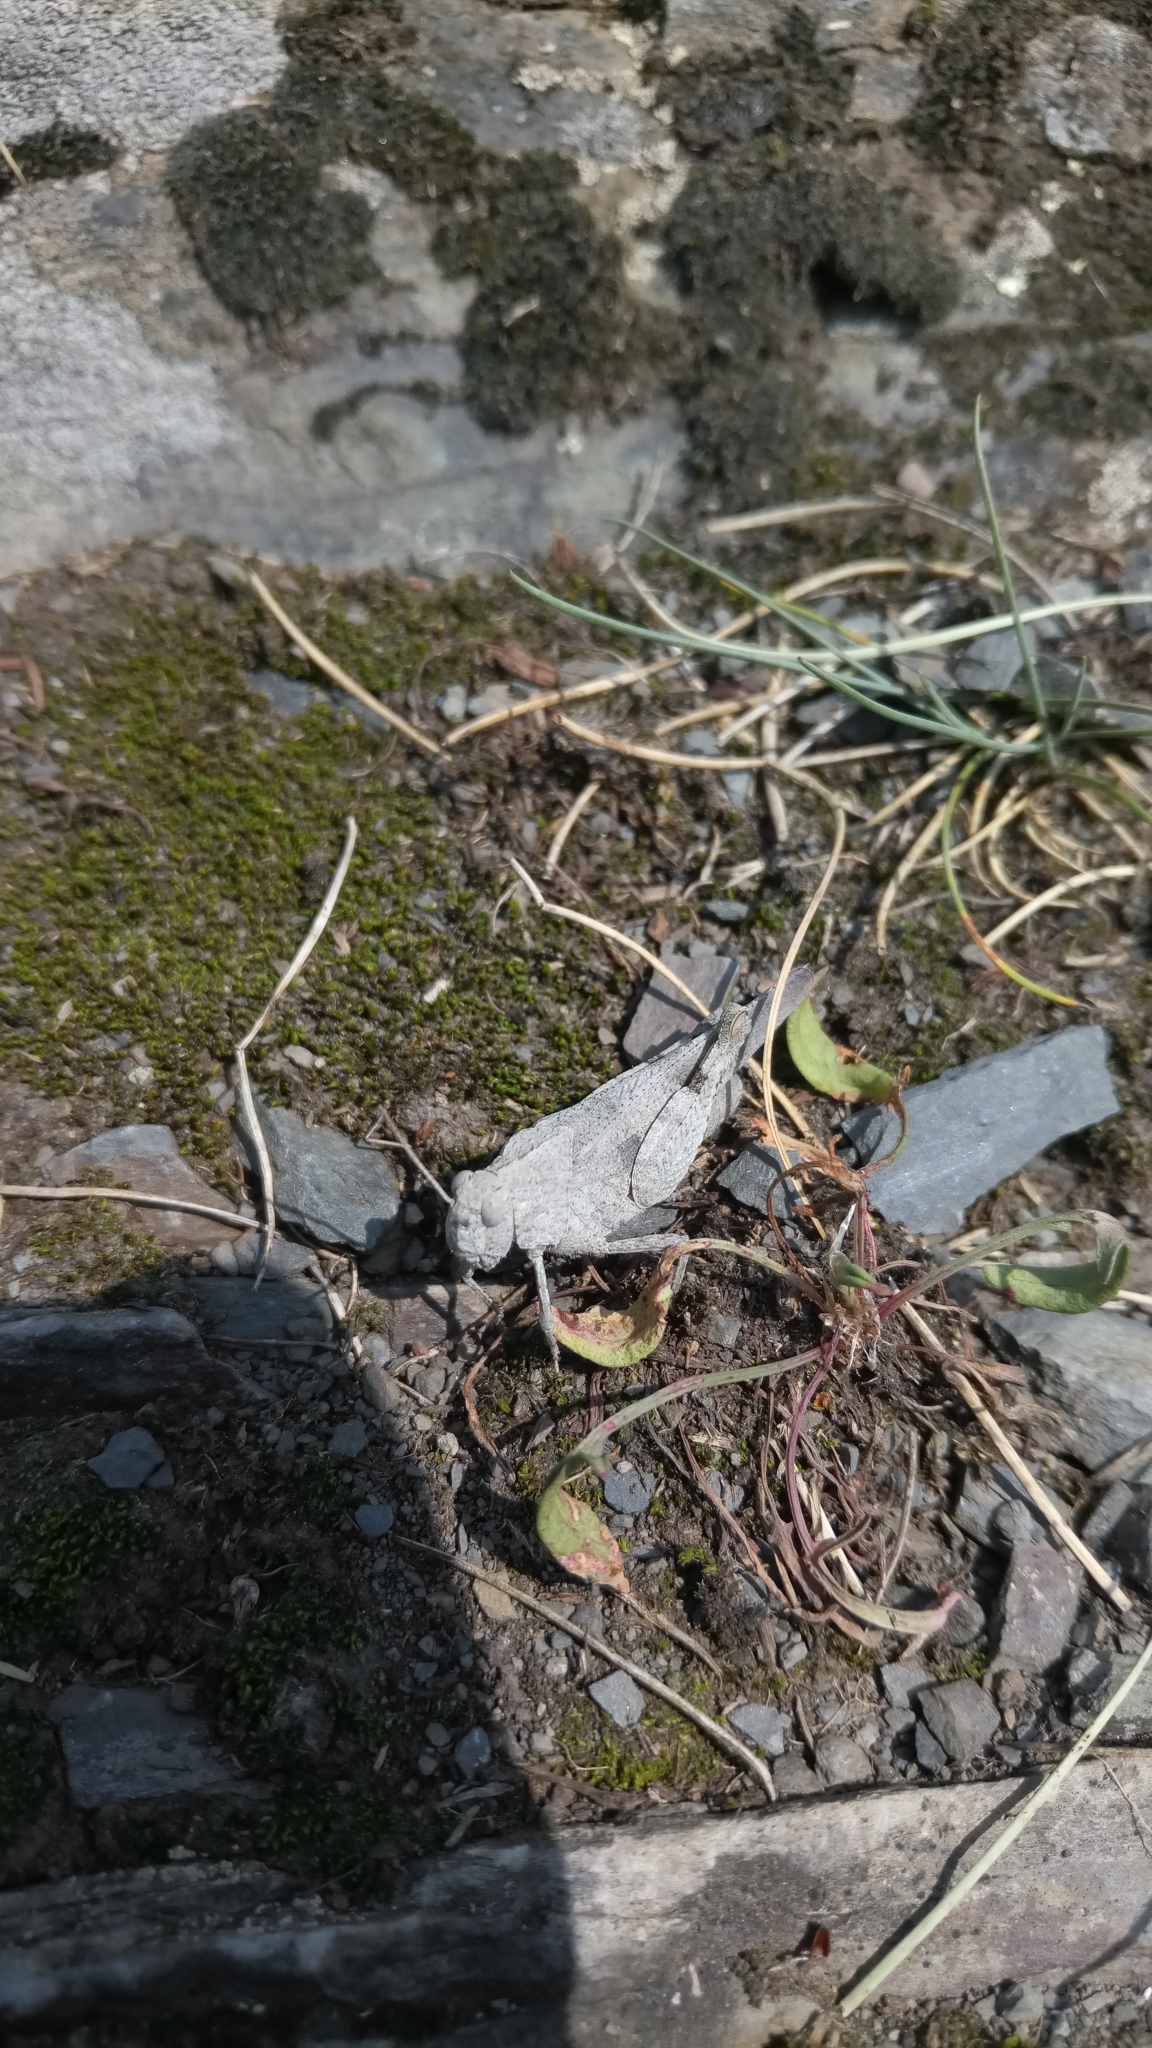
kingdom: Animalia
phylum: Arthropoda
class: Insecta
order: Orthoptera
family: Acrididae
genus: Oedipoda
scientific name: Oedipoda caerulescens
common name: Blue-winged grasshopper
